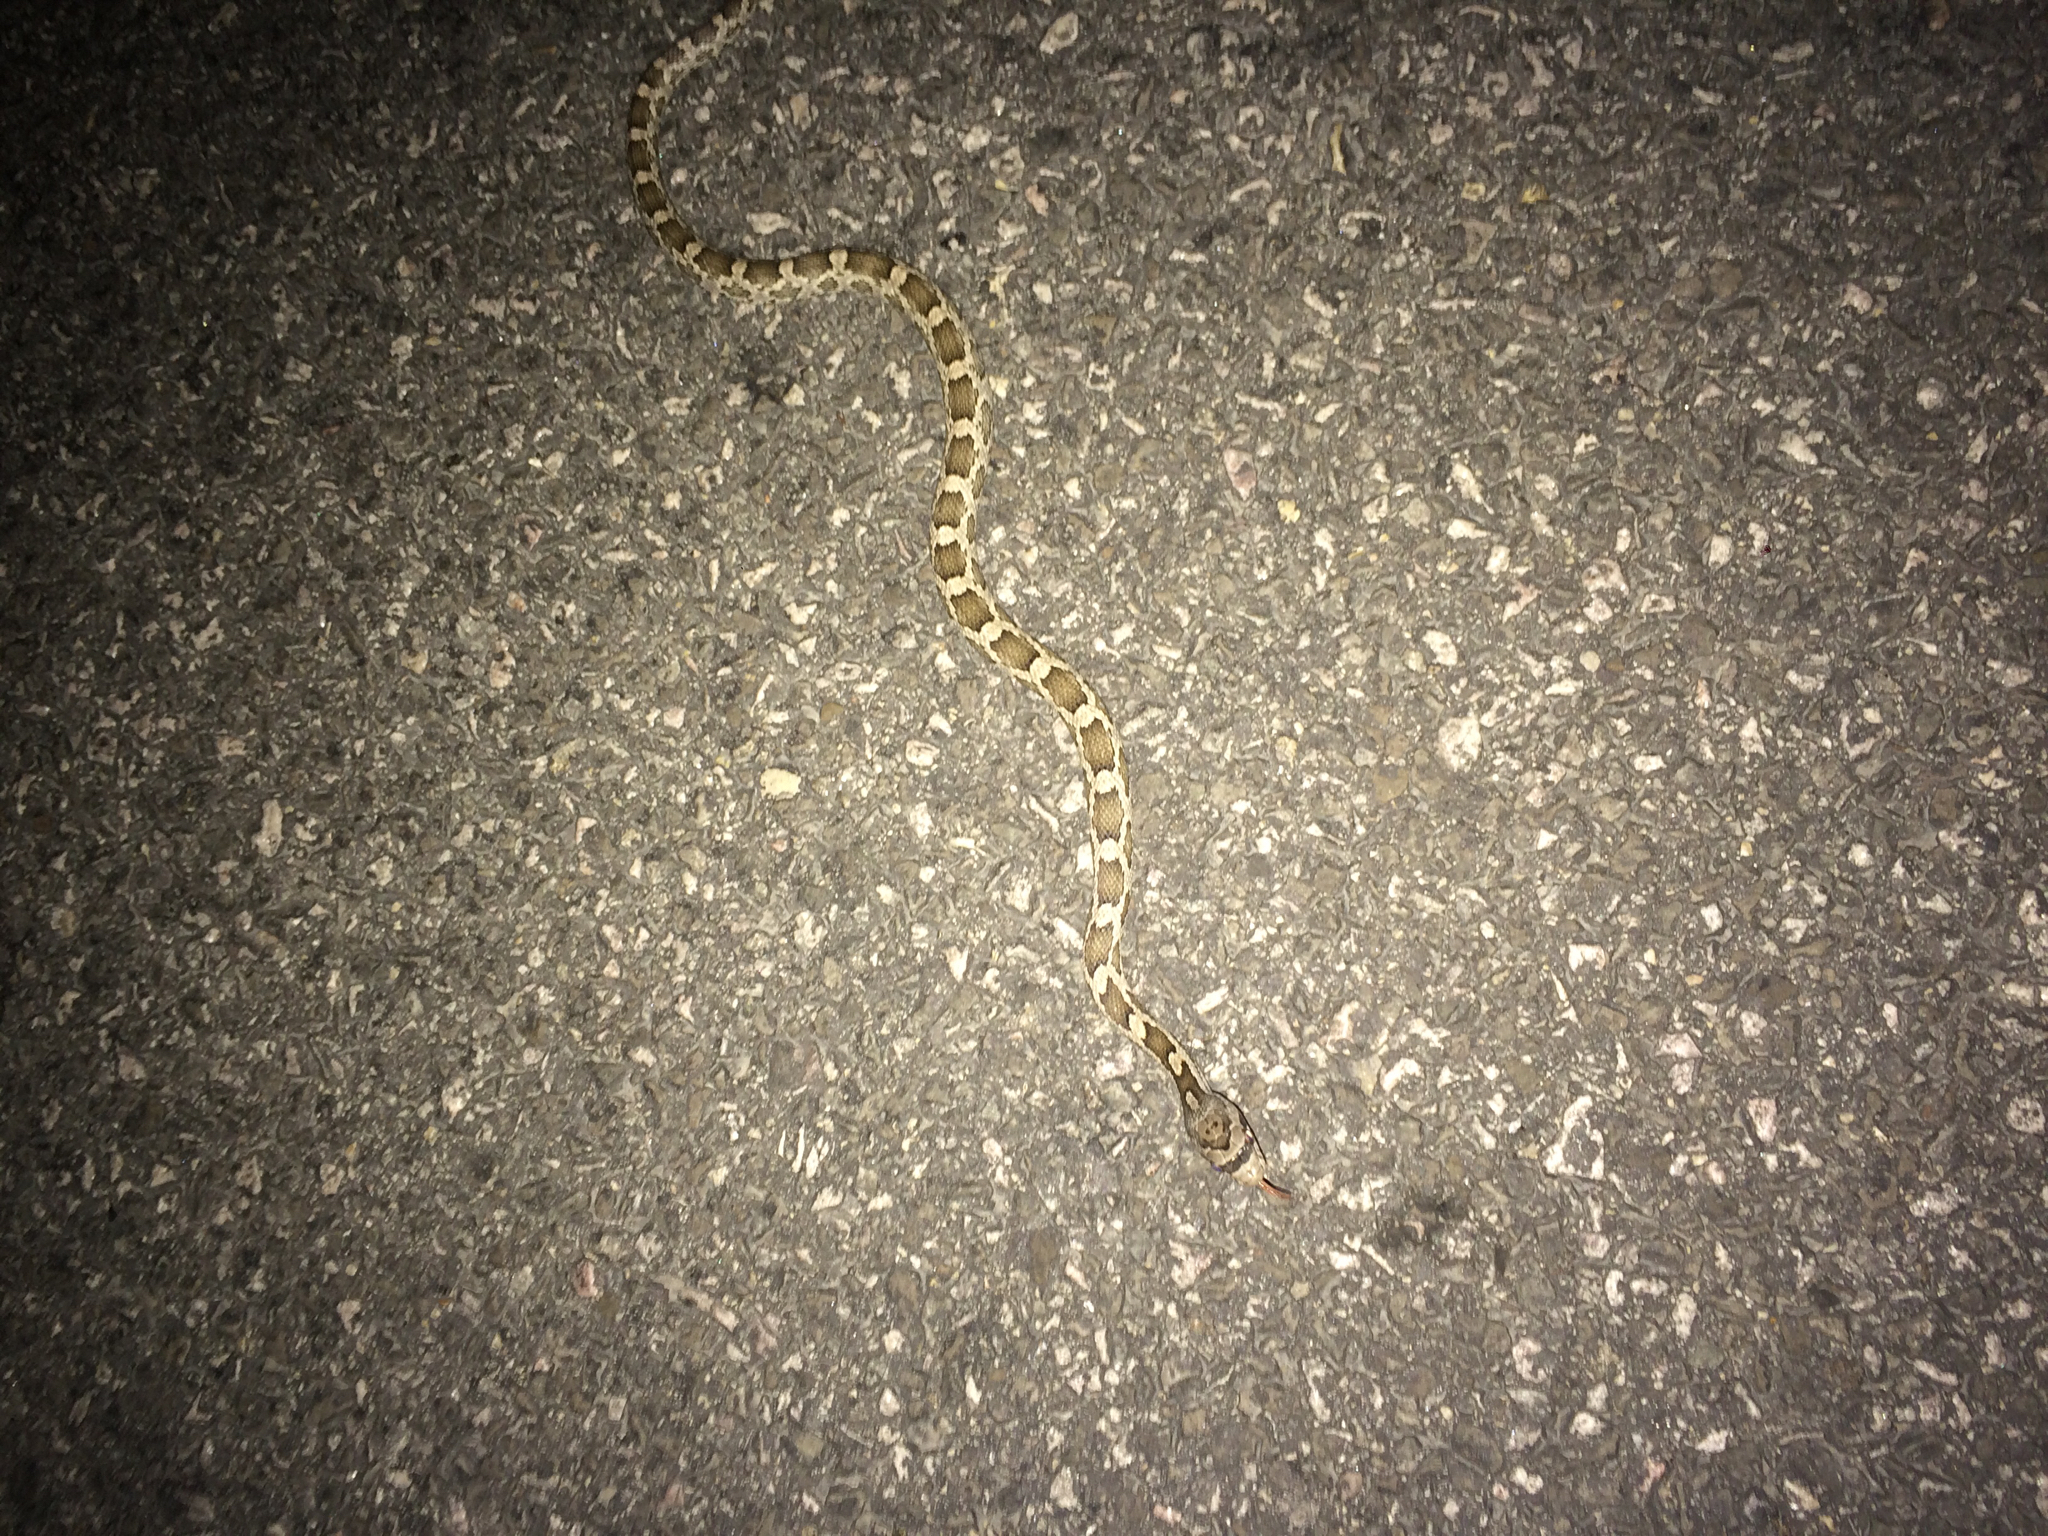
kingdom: Animalia
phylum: Chordata
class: Squamata
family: Colubridae
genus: Pantherophis
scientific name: Pantherophis obsoletus
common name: Black rat snake
